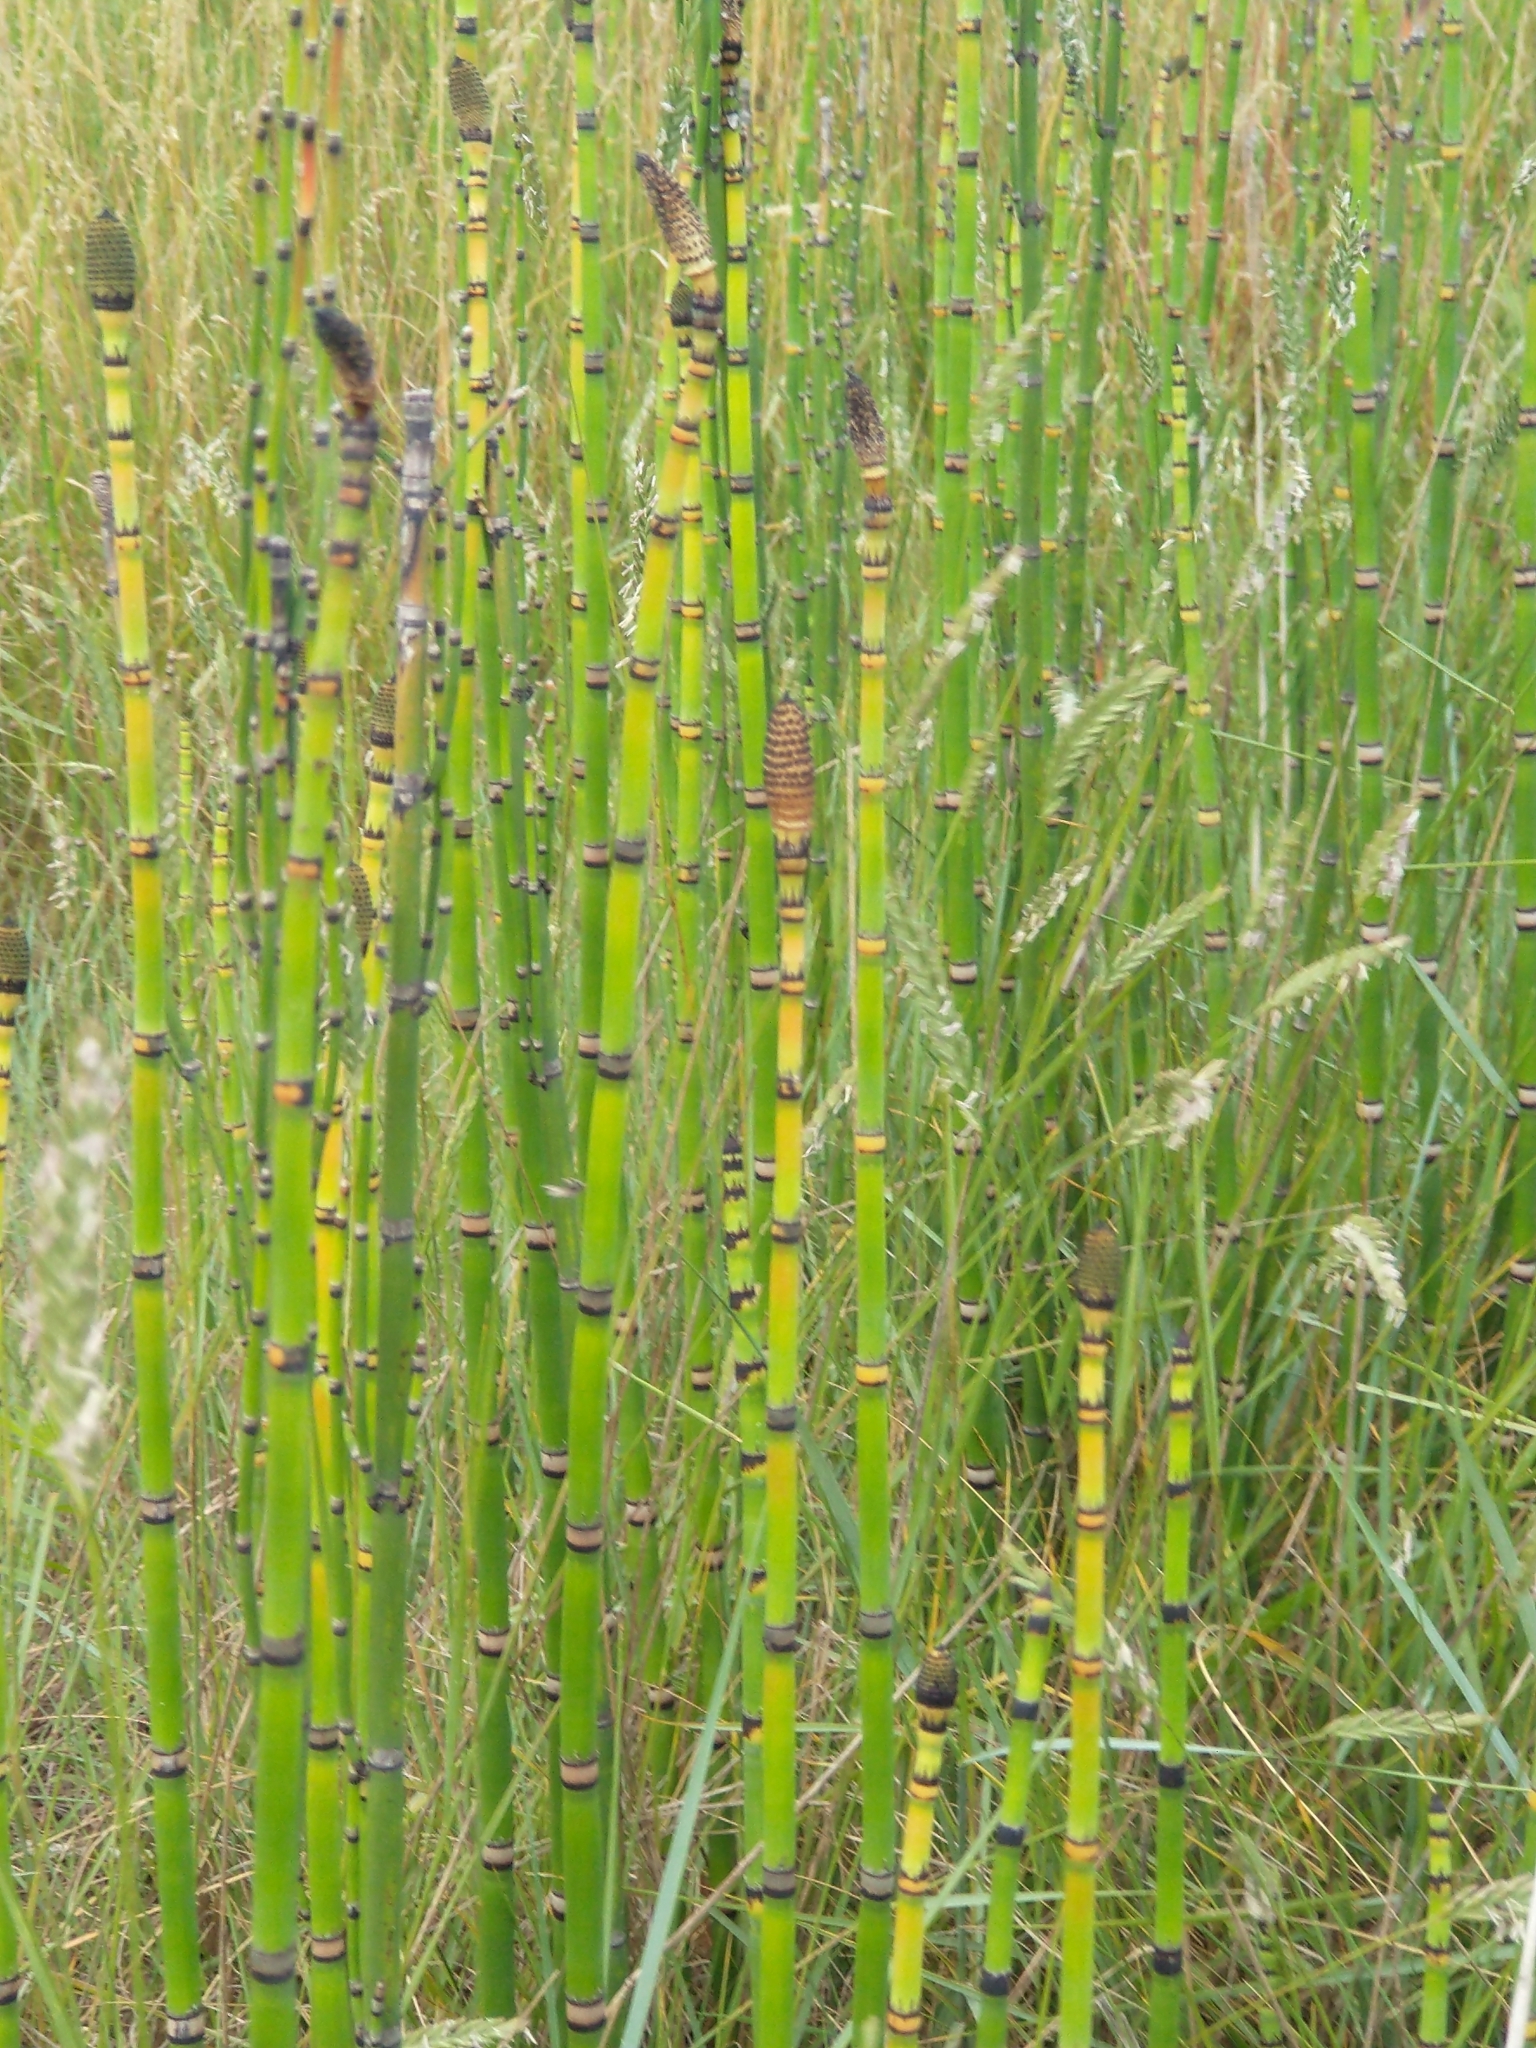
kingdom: Plantae
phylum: Tracheophyta
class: Polypodiopsida
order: Equisetales
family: Equisetaceae
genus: Equisetum
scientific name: Equisetum hyemale
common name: Rough horsetail
